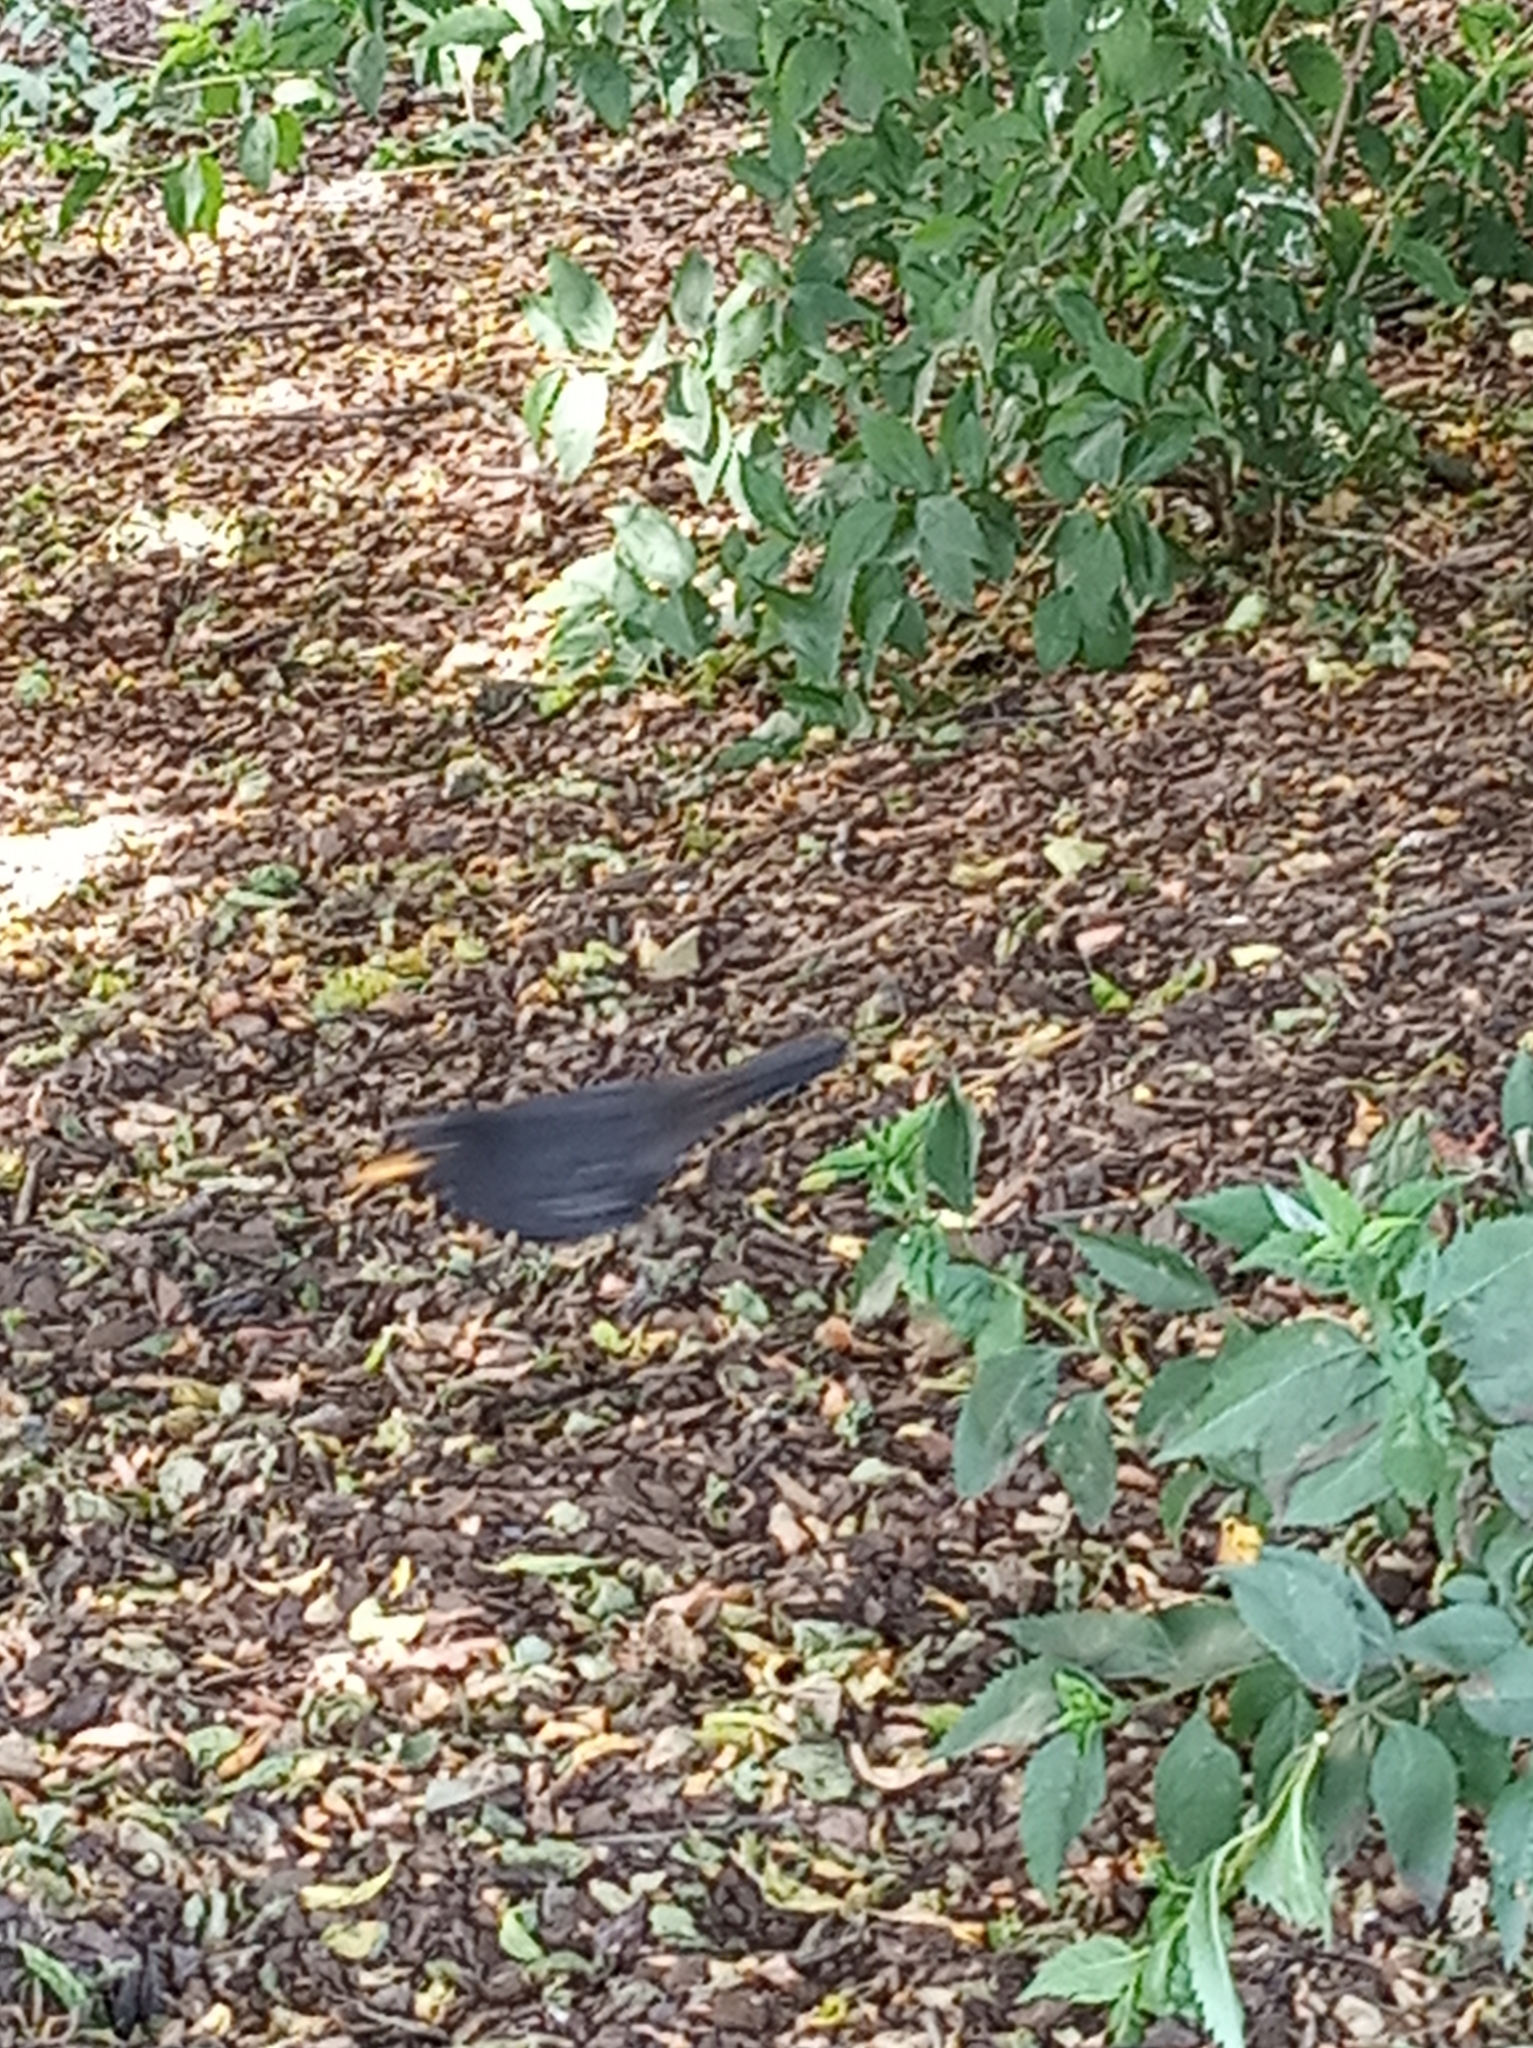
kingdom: Animalia
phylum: Chordata
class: Aves
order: Passeriformes
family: Turdidae
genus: Turdus
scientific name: Turdus merula
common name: Common blackbird
